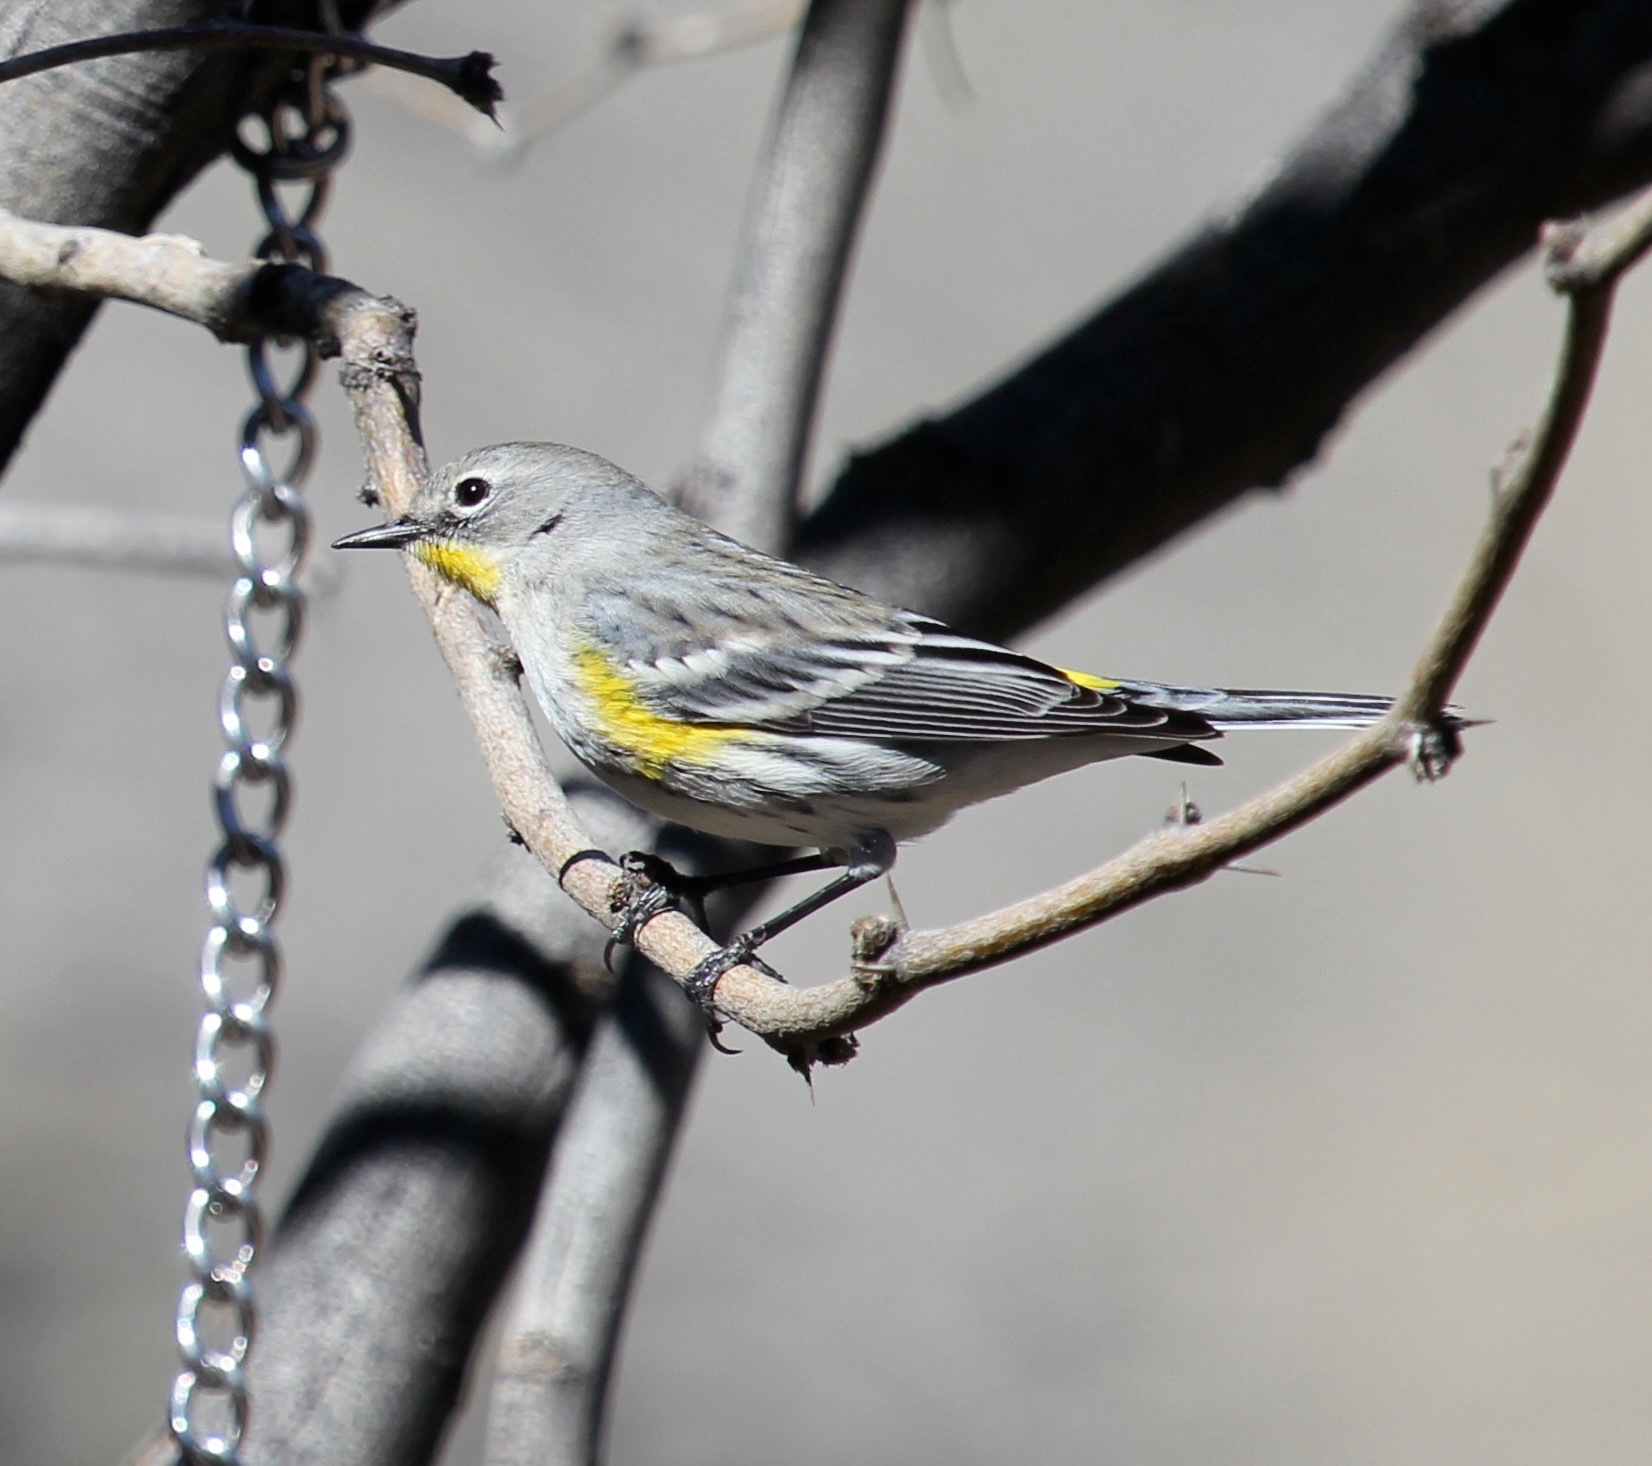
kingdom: Animalia
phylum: Chordata
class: Aves
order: Passeriformes
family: Parulidae
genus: Setophaga
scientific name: Setophaga coronata
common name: Myrtle warbler
